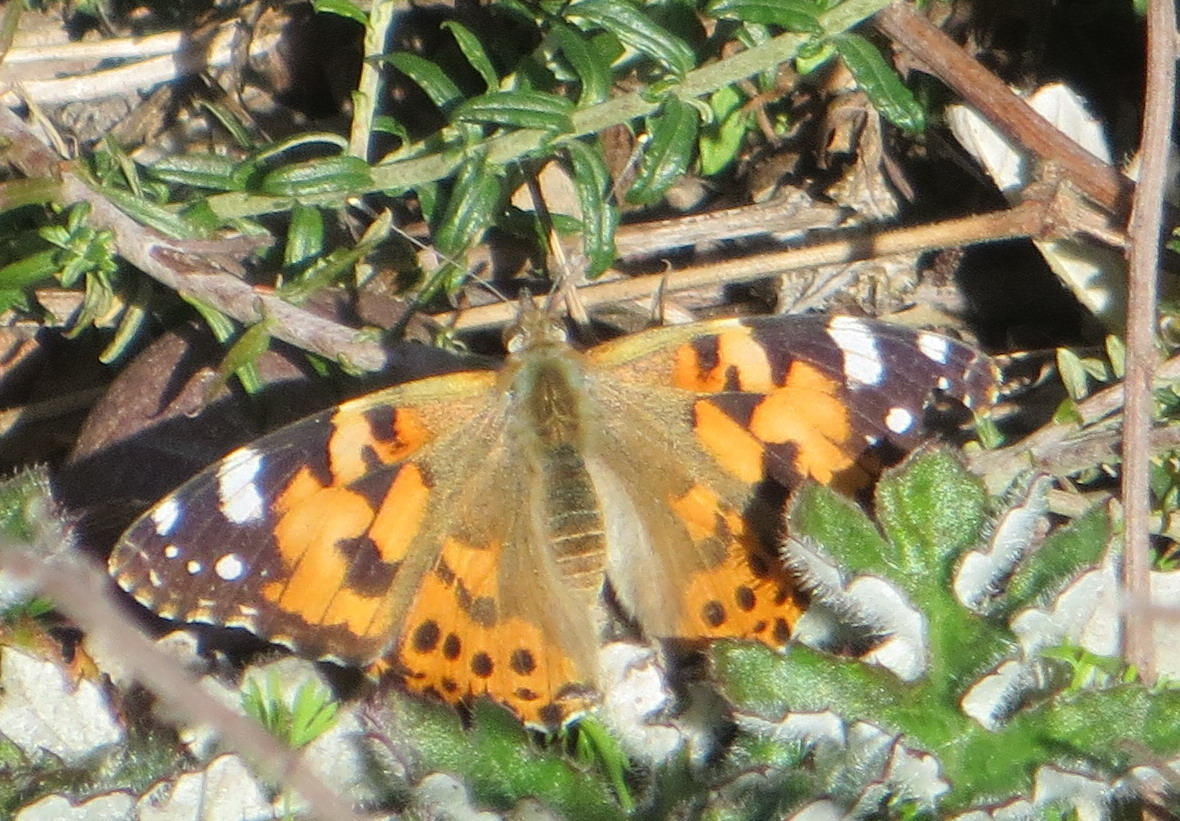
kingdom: Animalia
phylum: Arthropoda
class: Insecta
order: Lepidoptera
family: Nymphalidae
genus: Vanessa
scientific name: Vanessa cardui
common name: Painted lady
